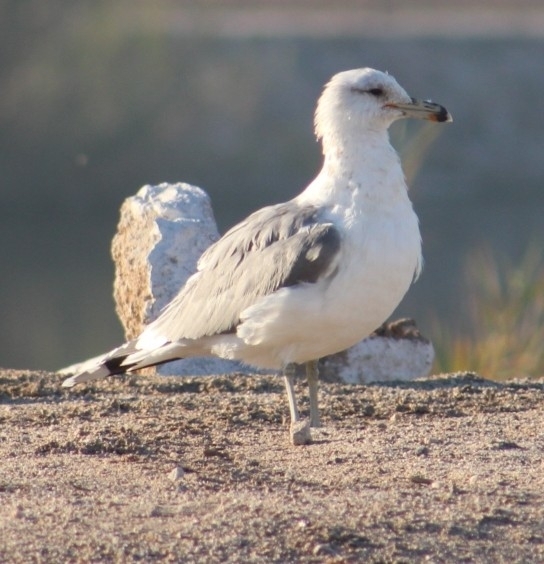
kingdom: Animalia
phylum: Chordata
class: Aves
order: Charadriiformes
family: Laridae
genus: Larus
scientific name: Larus californicus
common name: California gull
